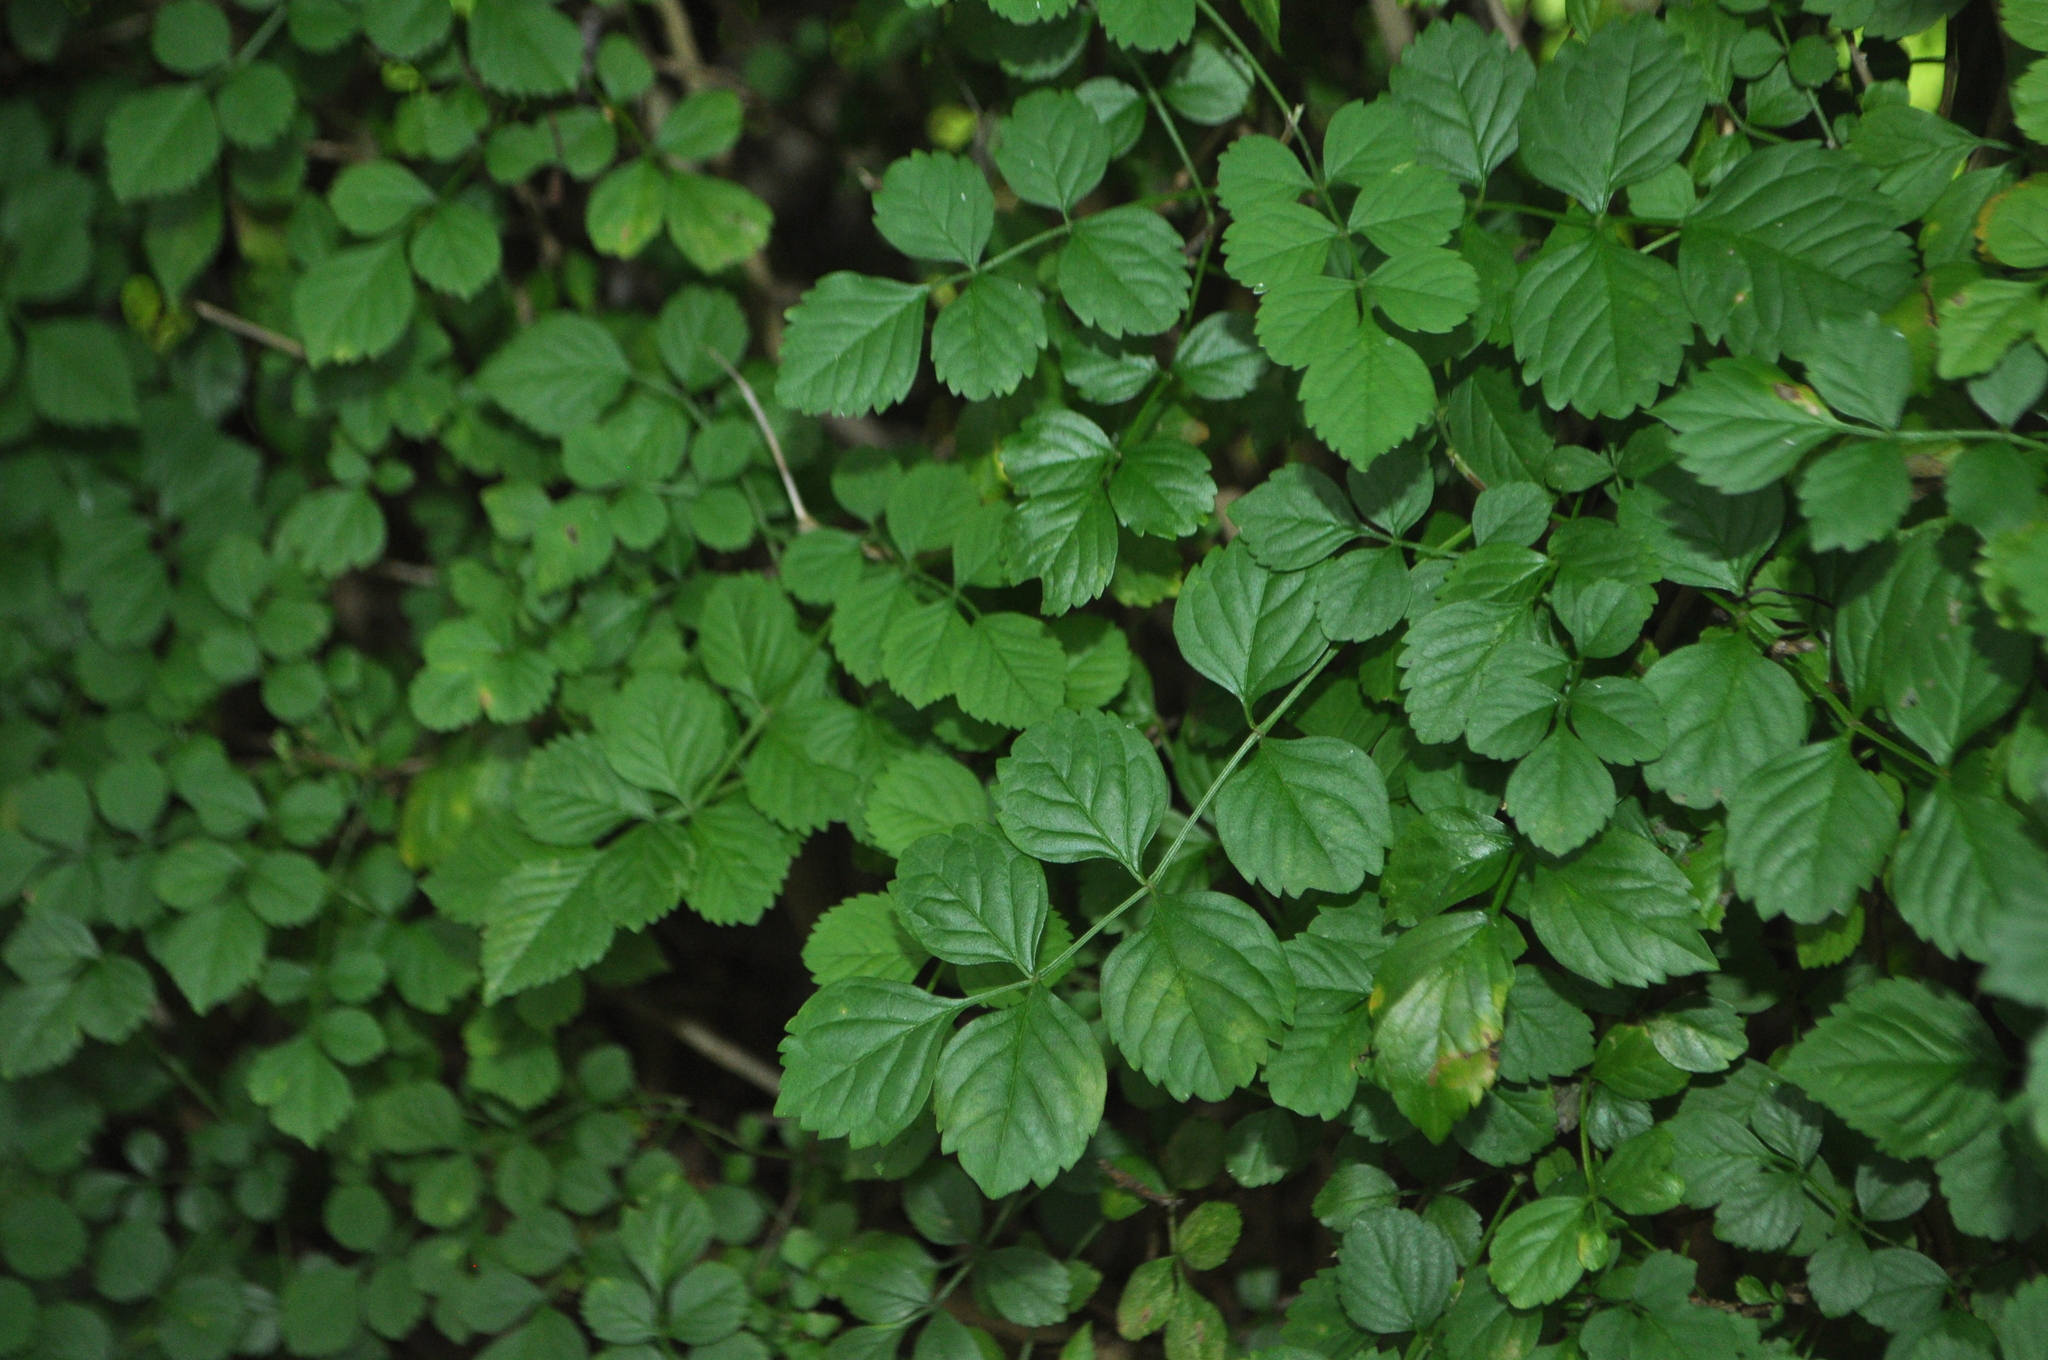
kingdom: Plantae
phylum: Tracheophyta
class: Magnoliopsida
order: Lamiales
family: Bignoniaceae
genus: Tecomaria
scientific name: Tecomaria capensis
